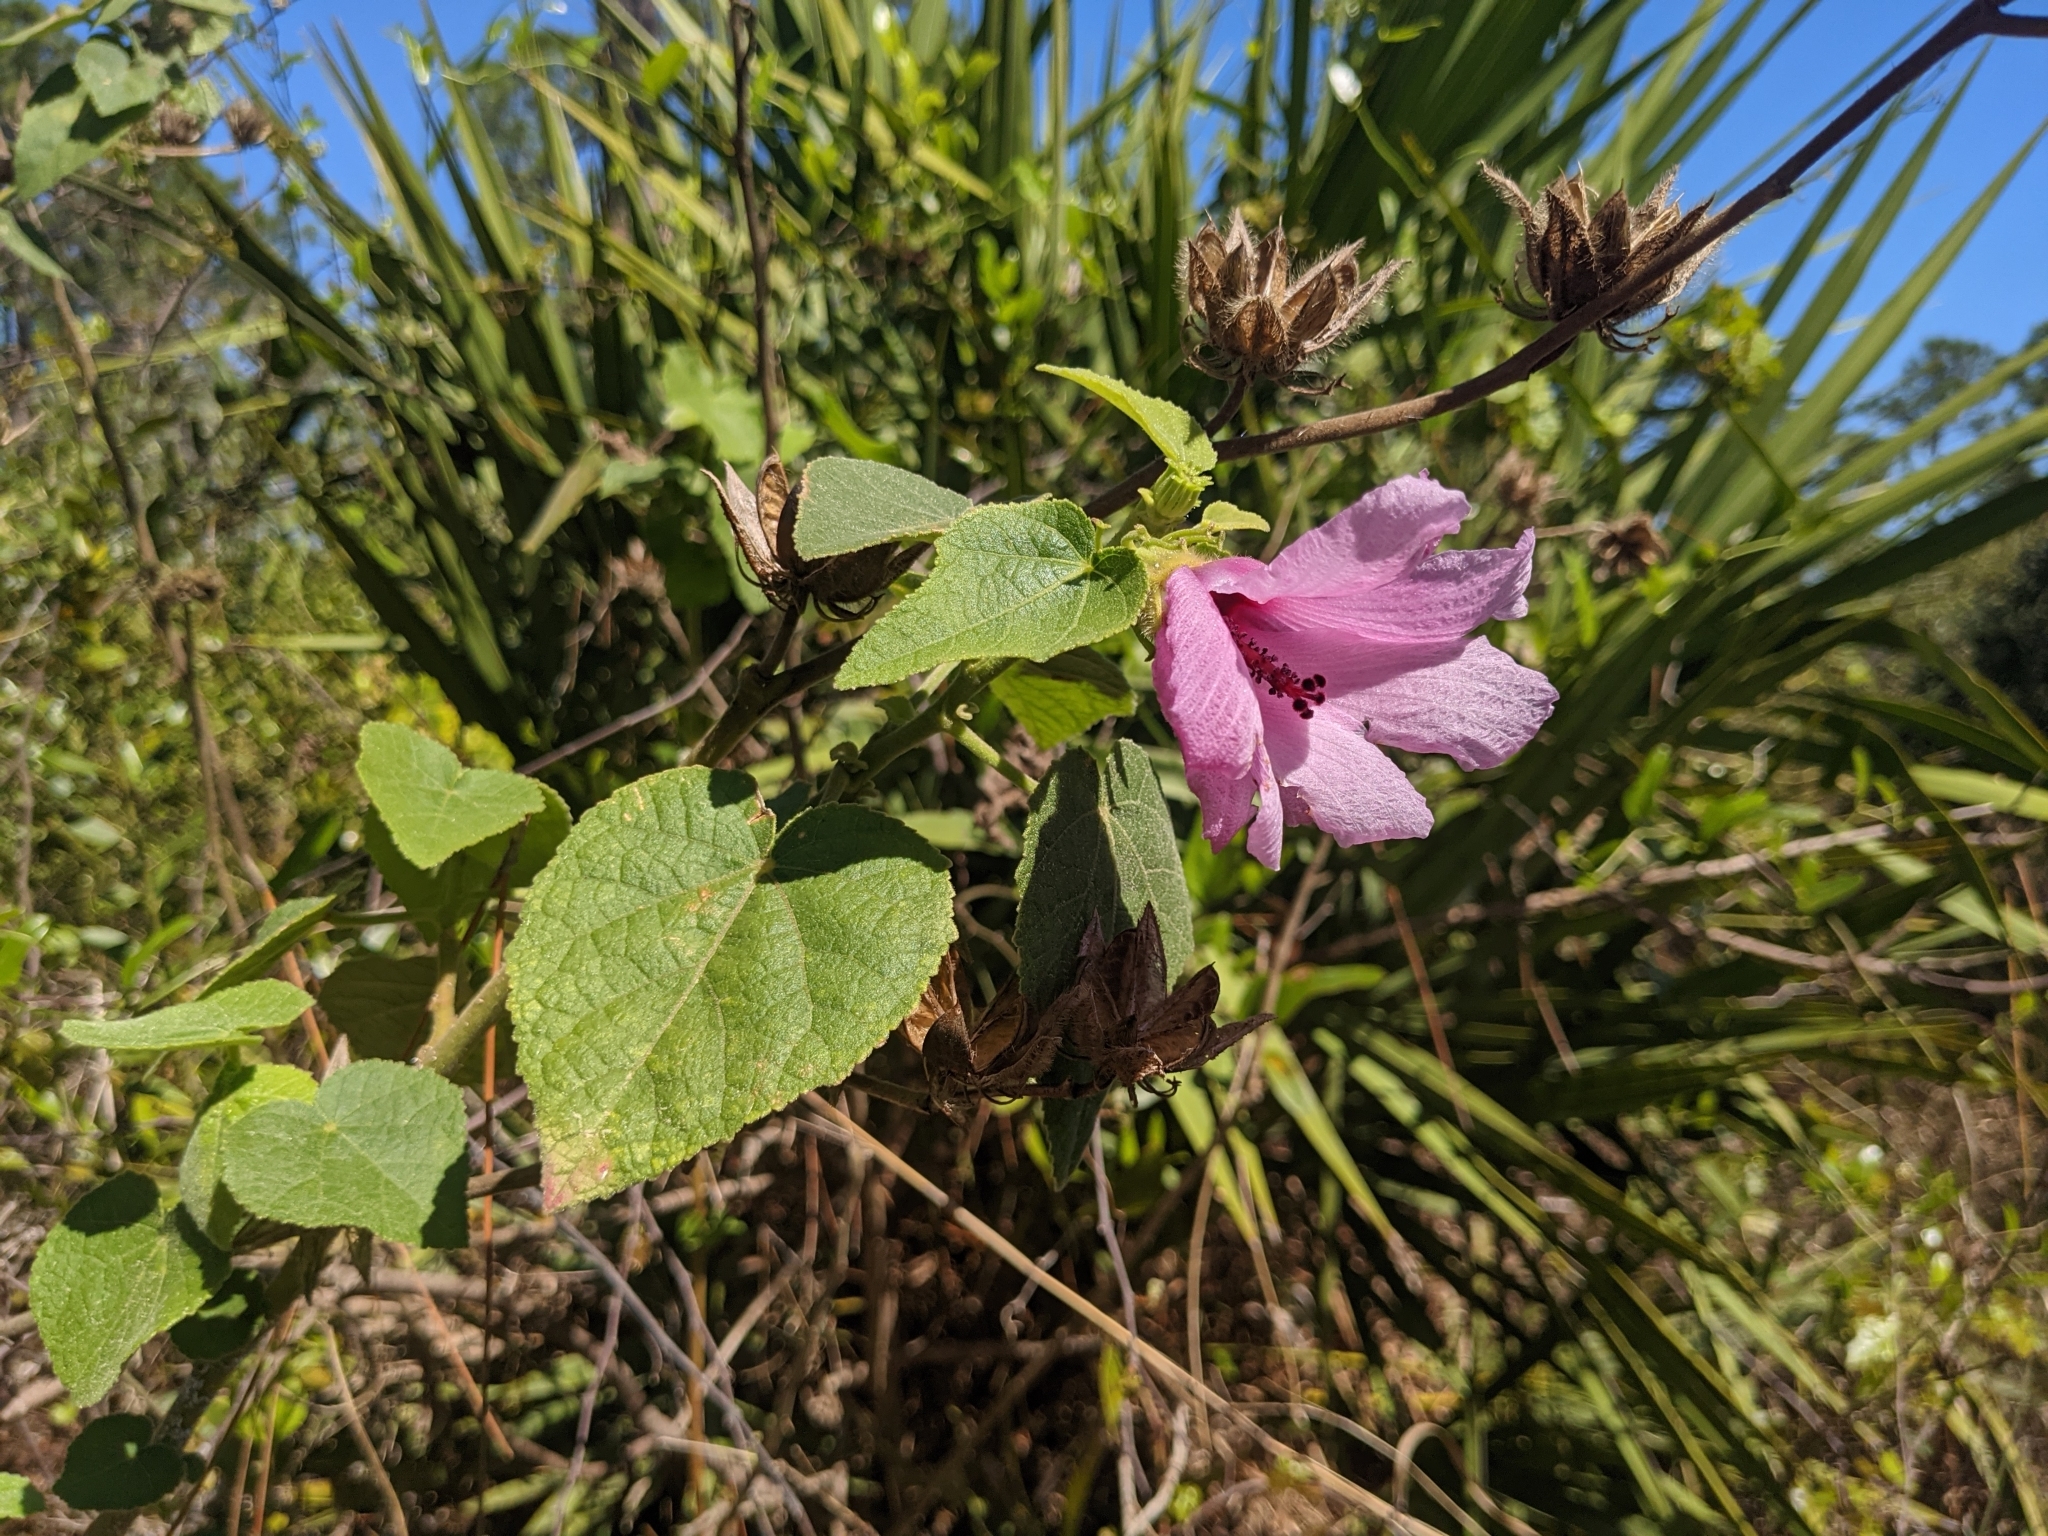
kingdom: Plantae
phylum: Tracheophyta
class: Magnoliopsida
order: Malvales
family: Malvaceae
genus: Hibiscus
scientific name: Hibiscus furcellatus
